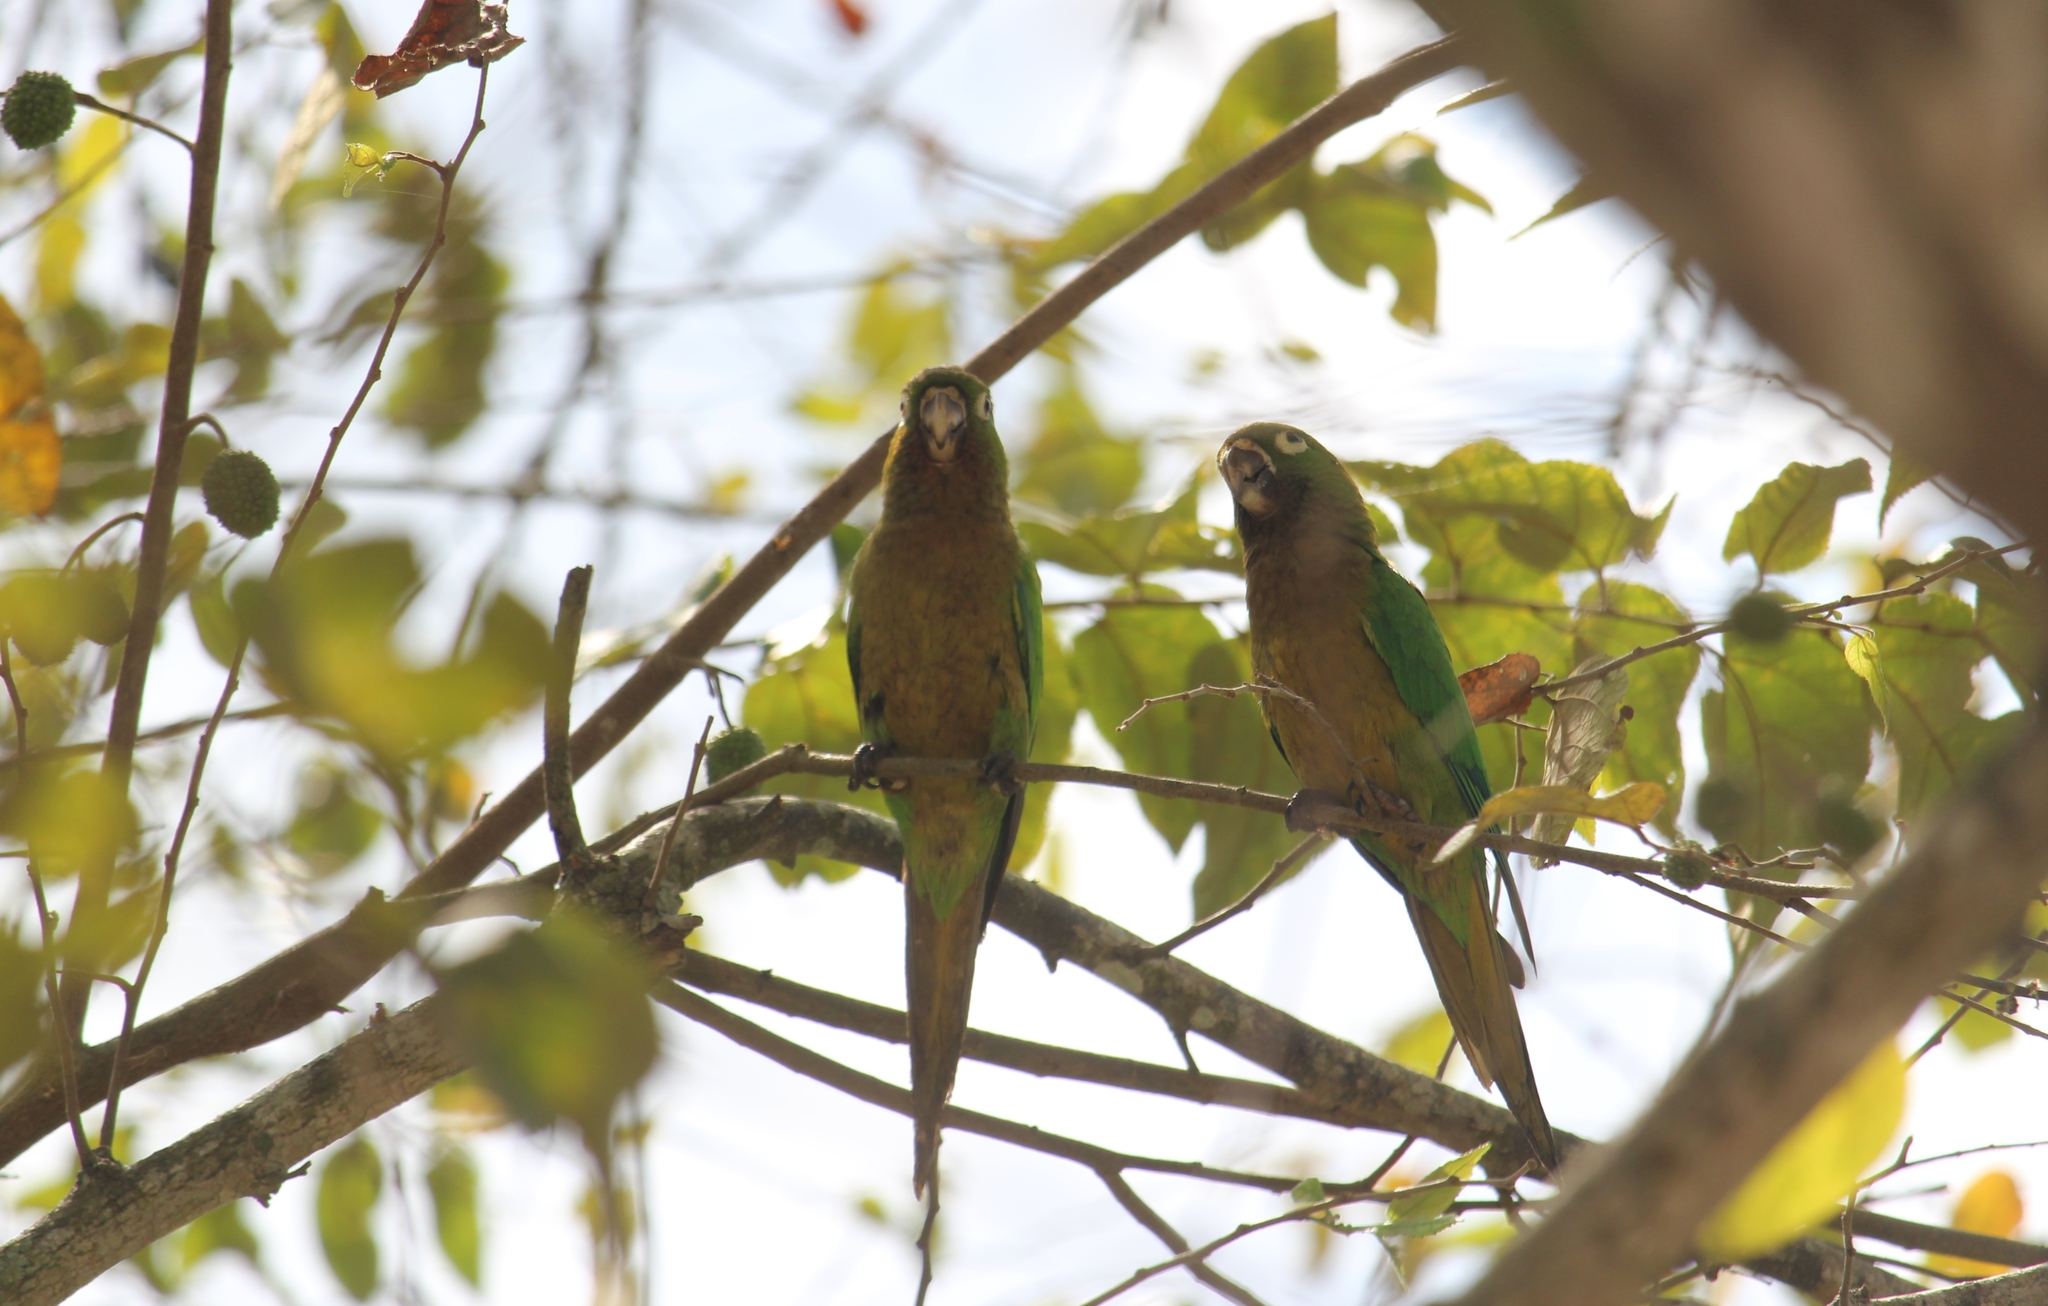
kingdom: Animalia
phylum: Chordata
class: Aves
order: Psittaciformes
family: Psittacidae
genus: Aratinga
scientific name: Aratinga nana
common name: Olive-throated parakeet
